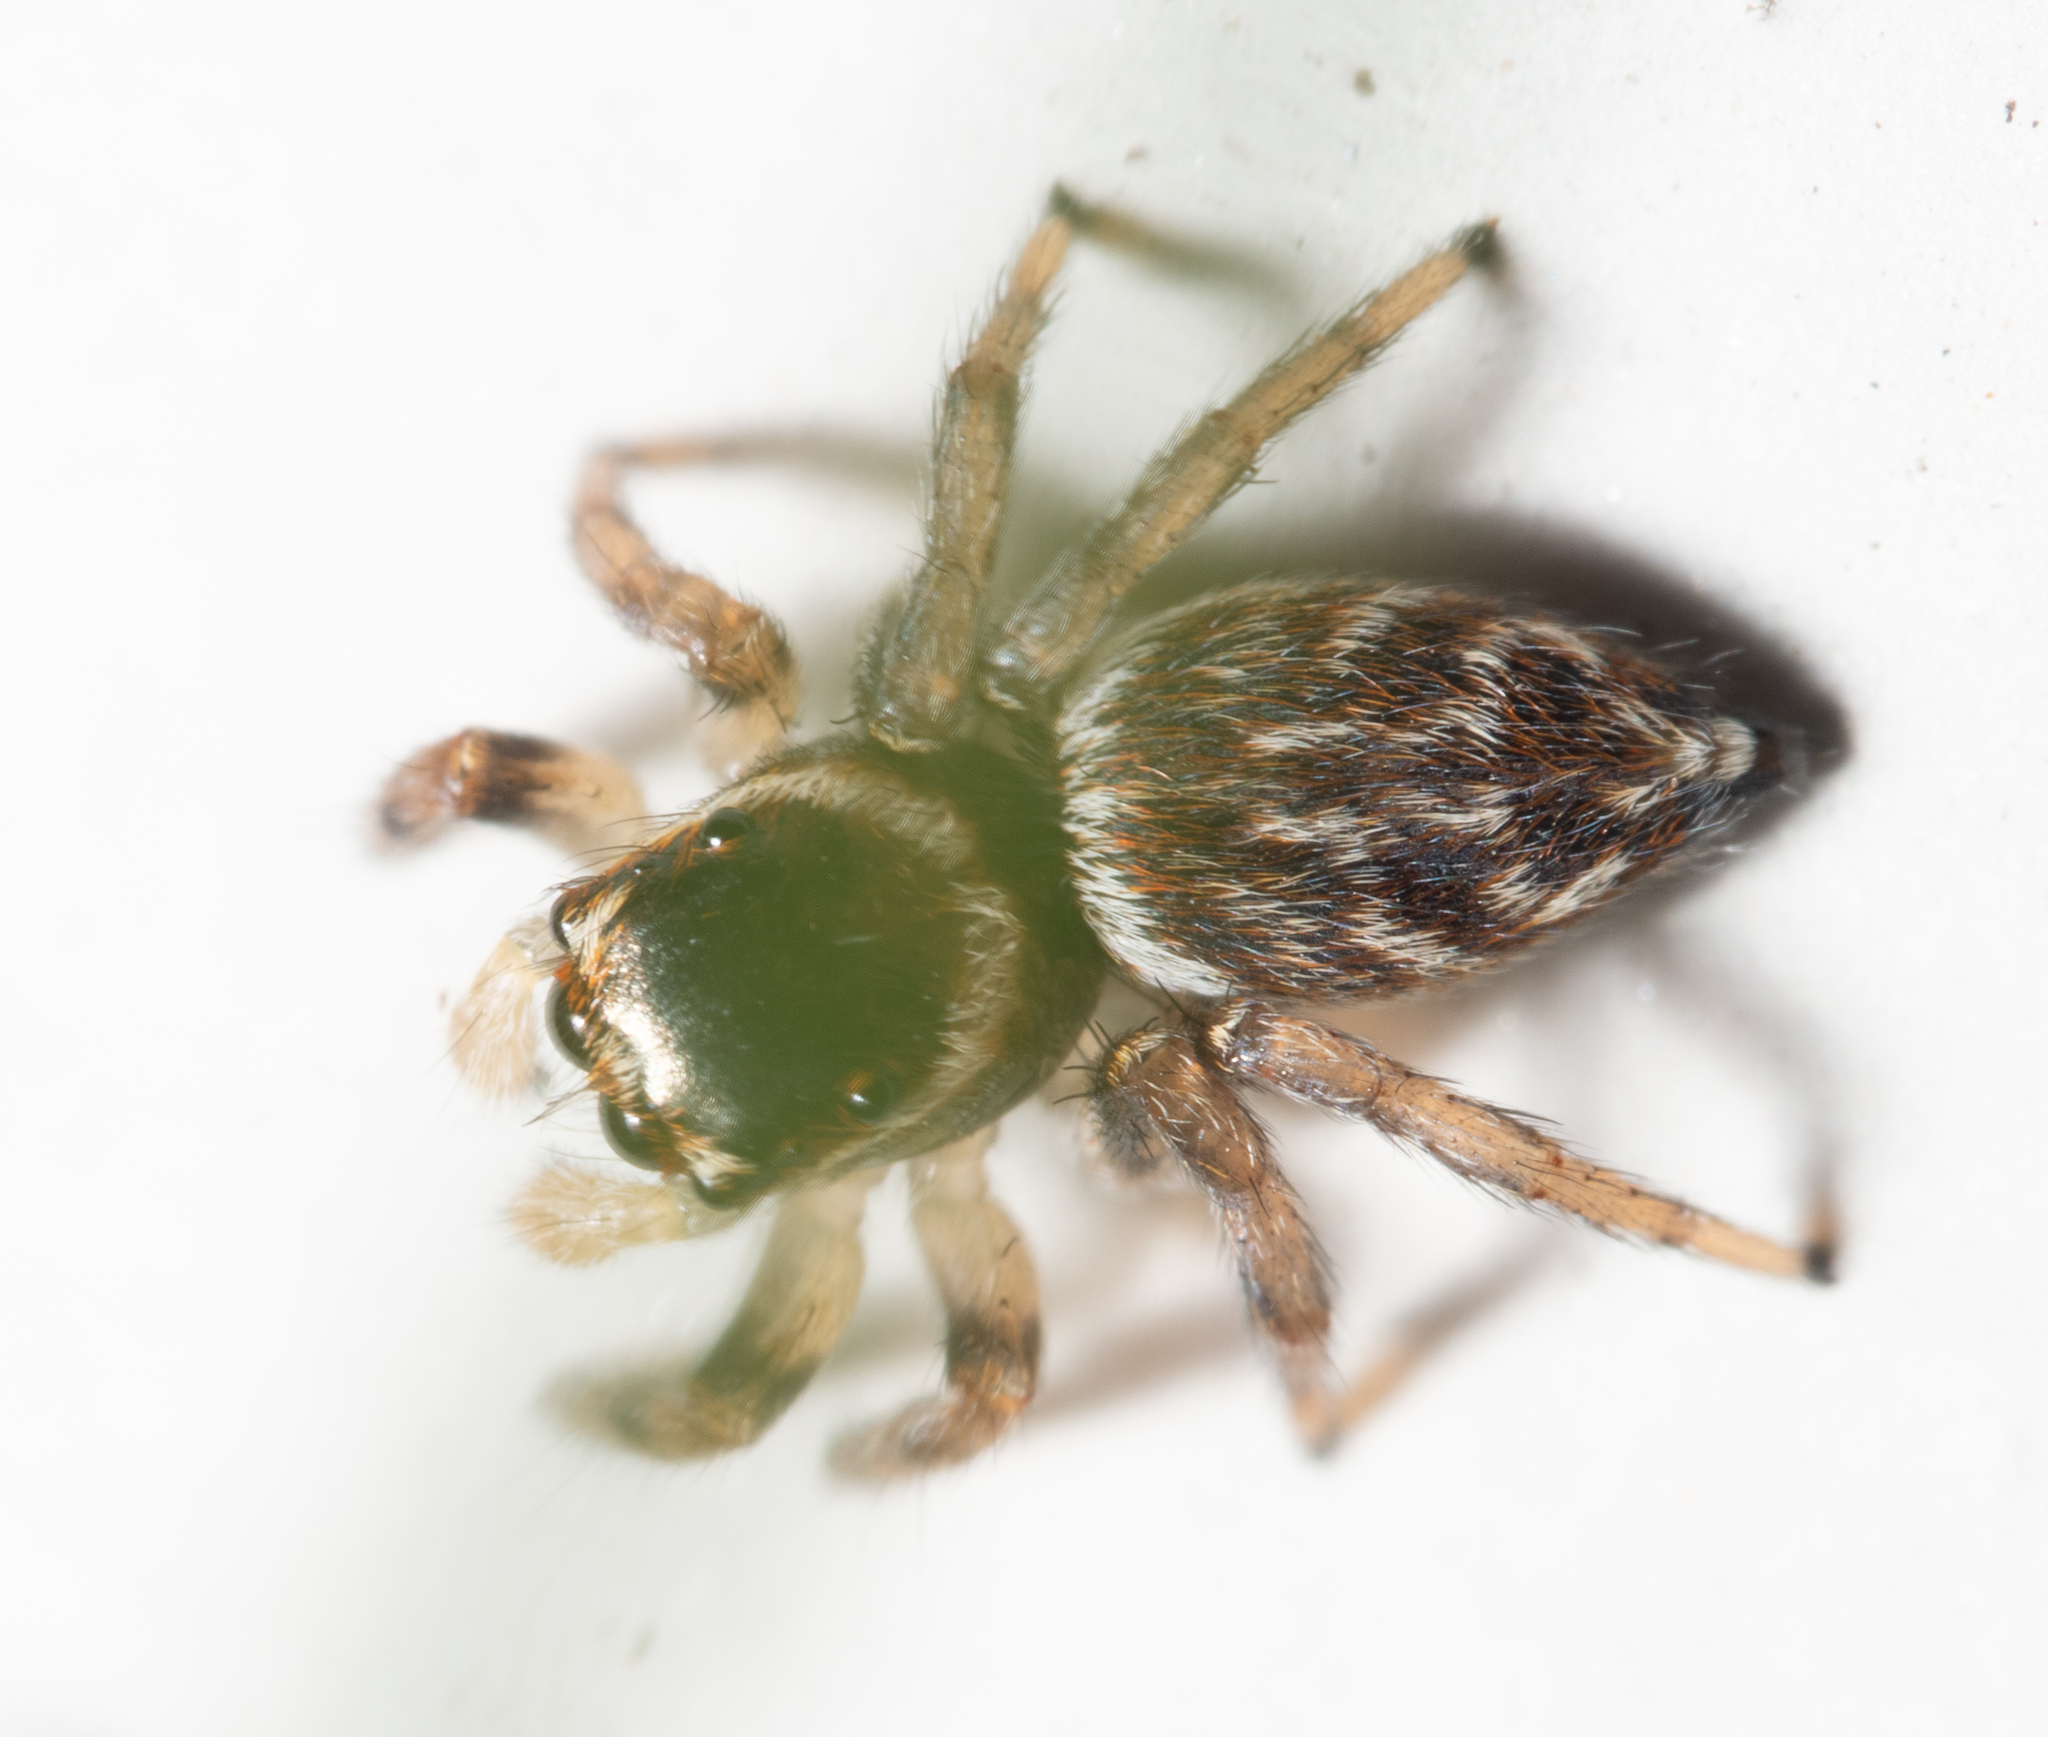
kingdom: Animalia
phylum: Arthropoda
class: Arachnida
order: Araneae
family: Salticidae
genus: Maratus
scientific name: Maratus griseus
